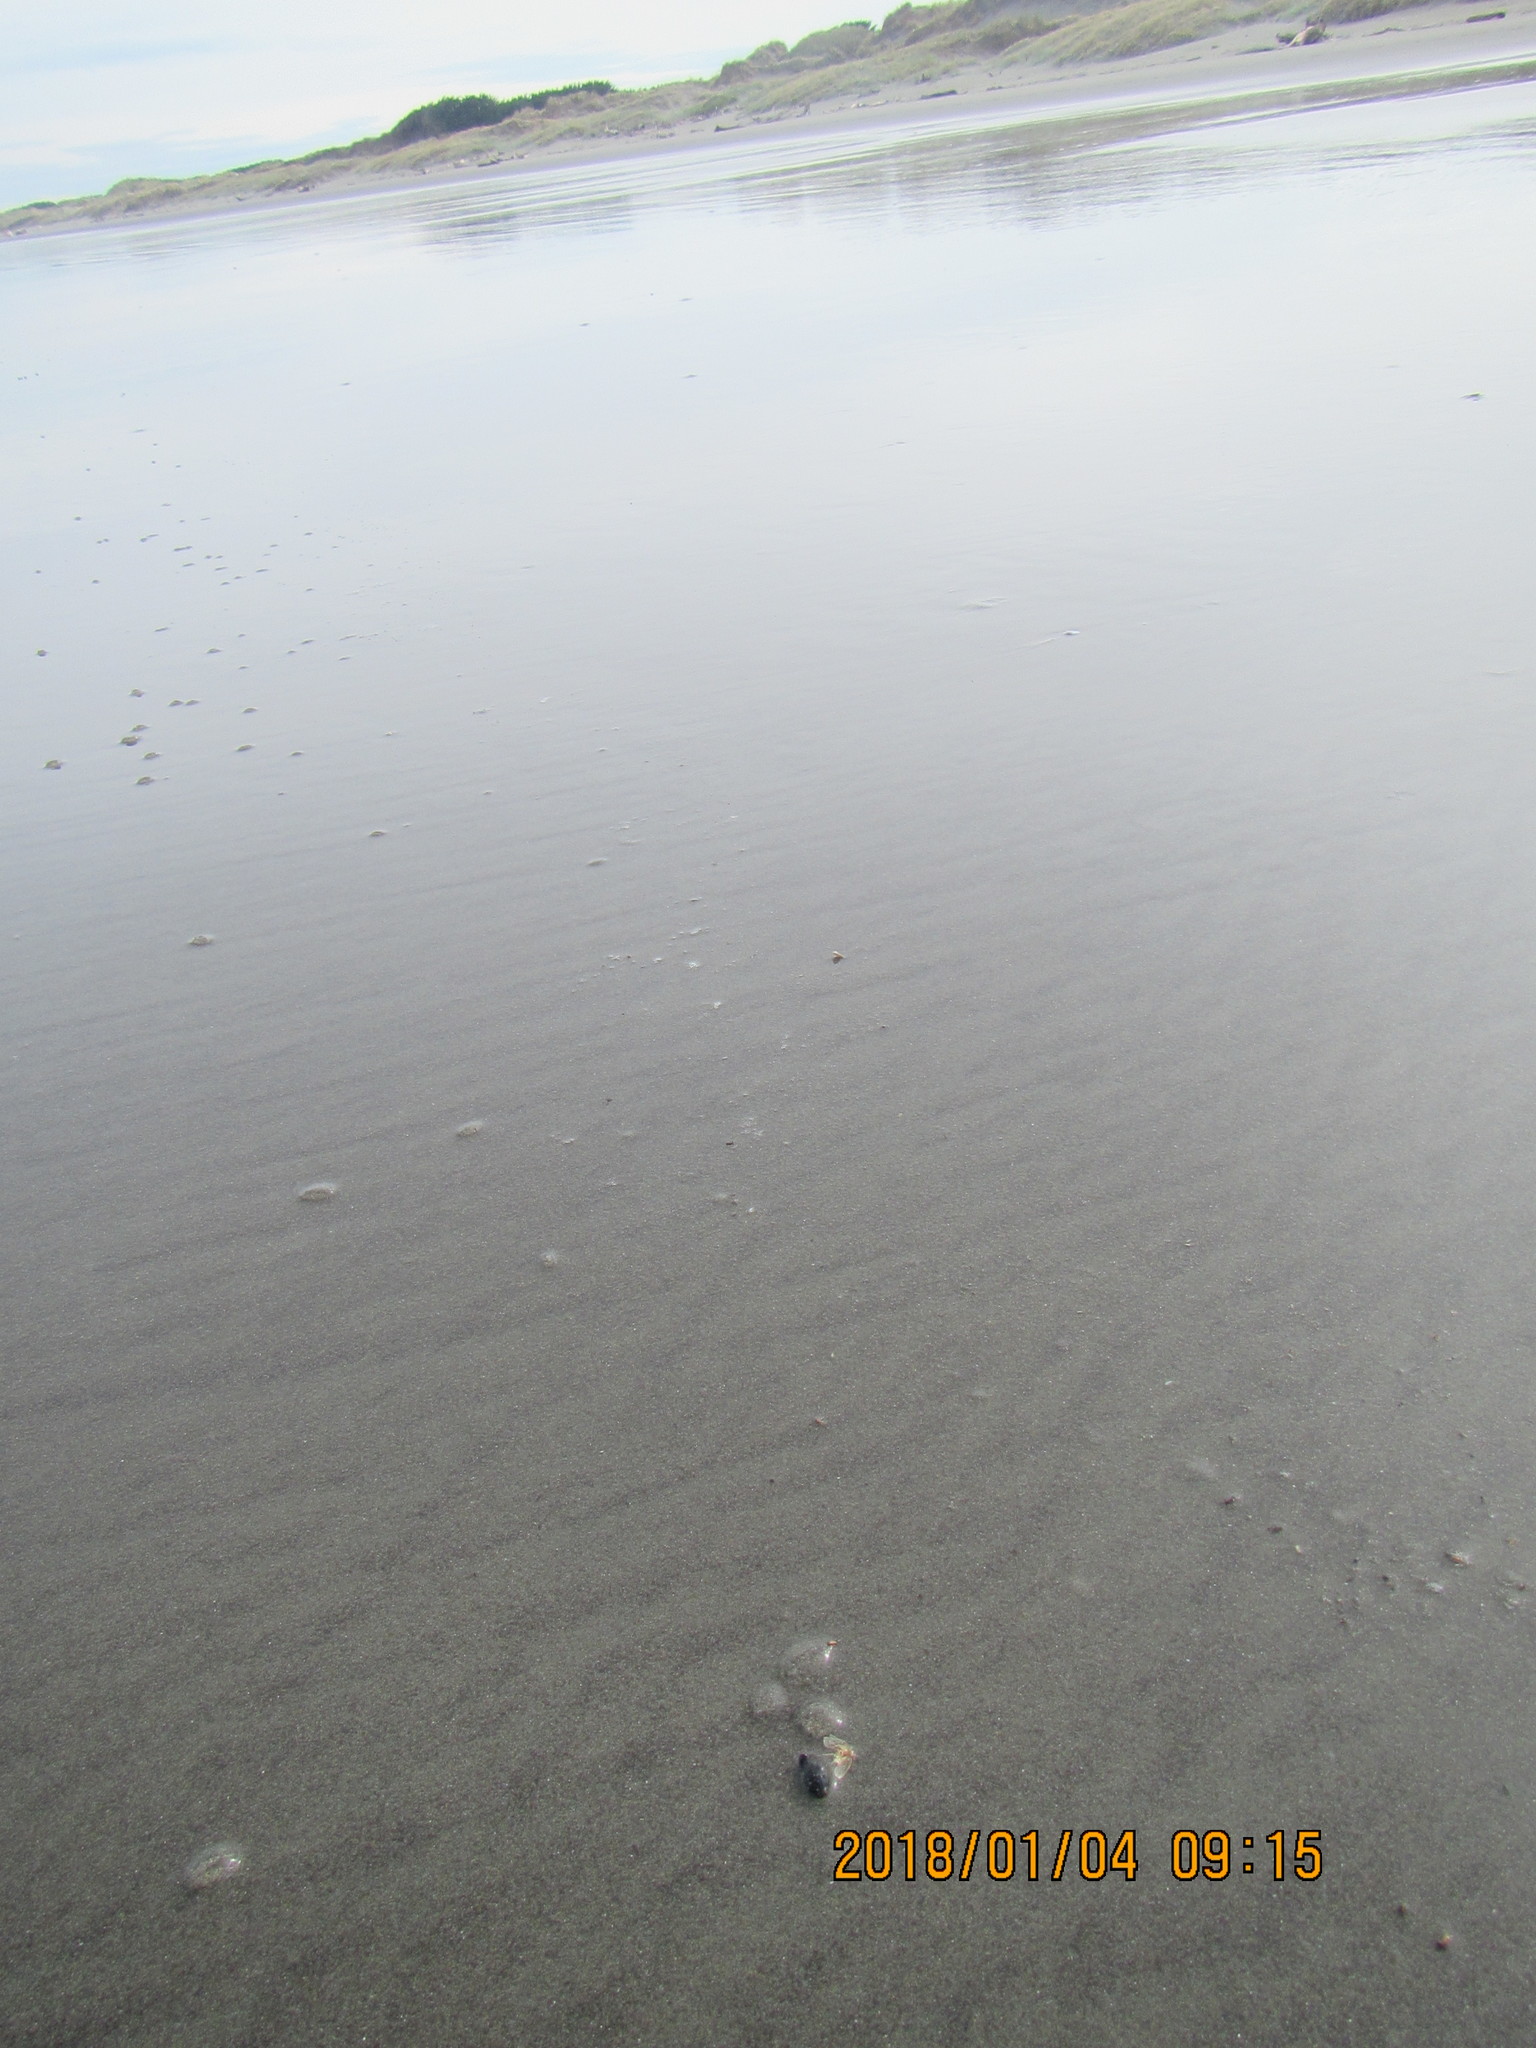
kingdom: Animalia
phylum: Arthropoda
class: Insecta
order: Coleoptera
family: Curculionidae
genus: Mesites
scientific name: Mesites pallidipennis
